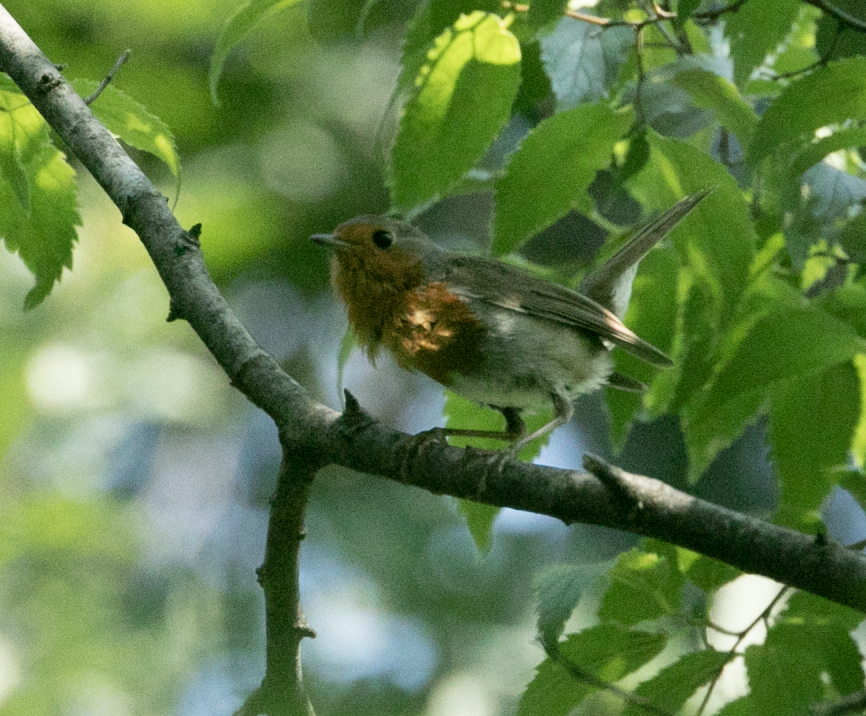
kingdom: Animalia
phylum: Chordata
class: Aves
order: Passeriformes
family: Muscicapidae
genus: Erithacus
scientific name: Erithacus rubecula
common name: European robin
